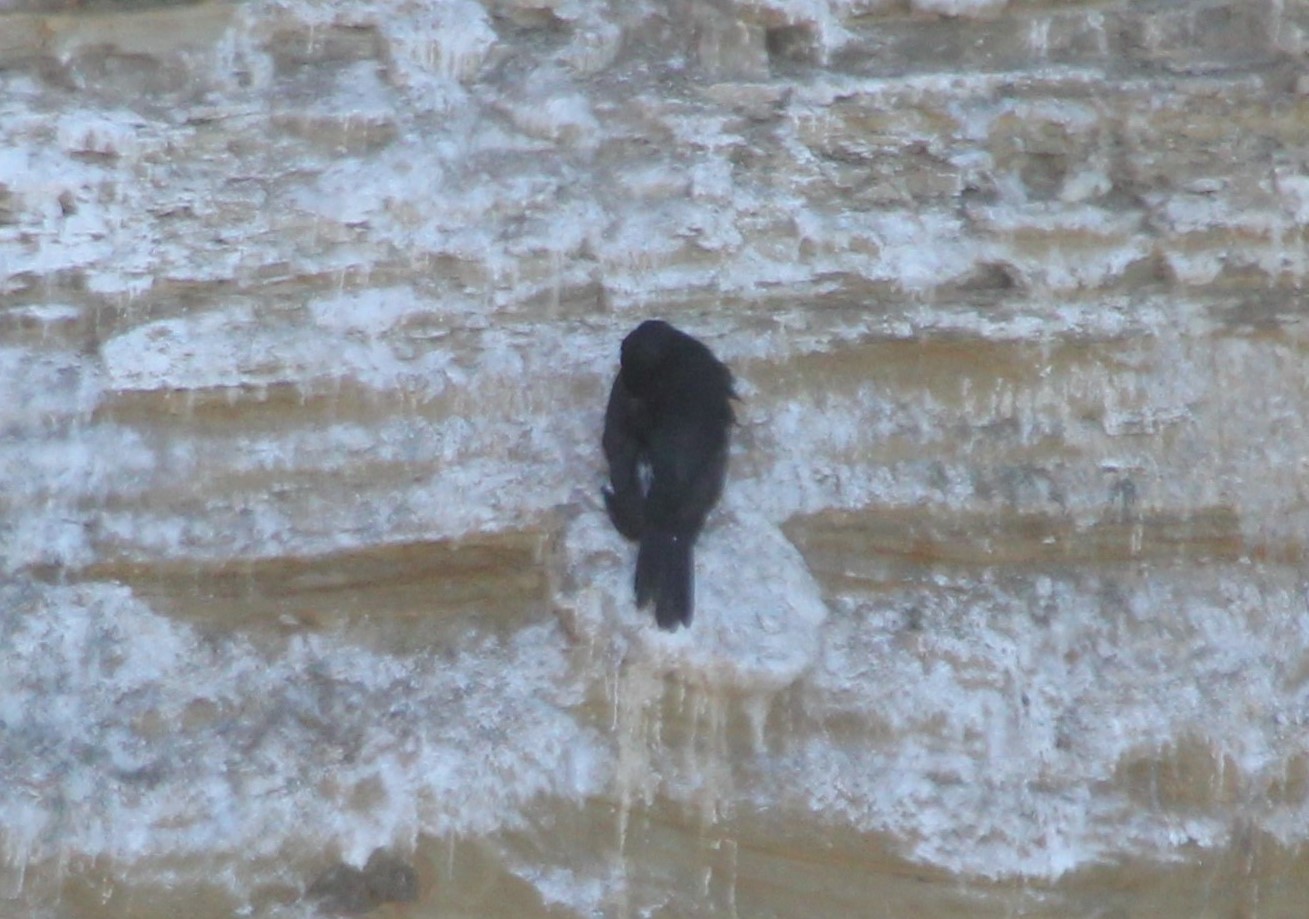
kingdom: Animalia
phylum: Chordata
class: Aves
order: Suliformes
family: Phalacrocoracidae
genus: Phalacrocorax
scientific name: Phalacrocorax pelagicus
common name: Pelagic cormorant
